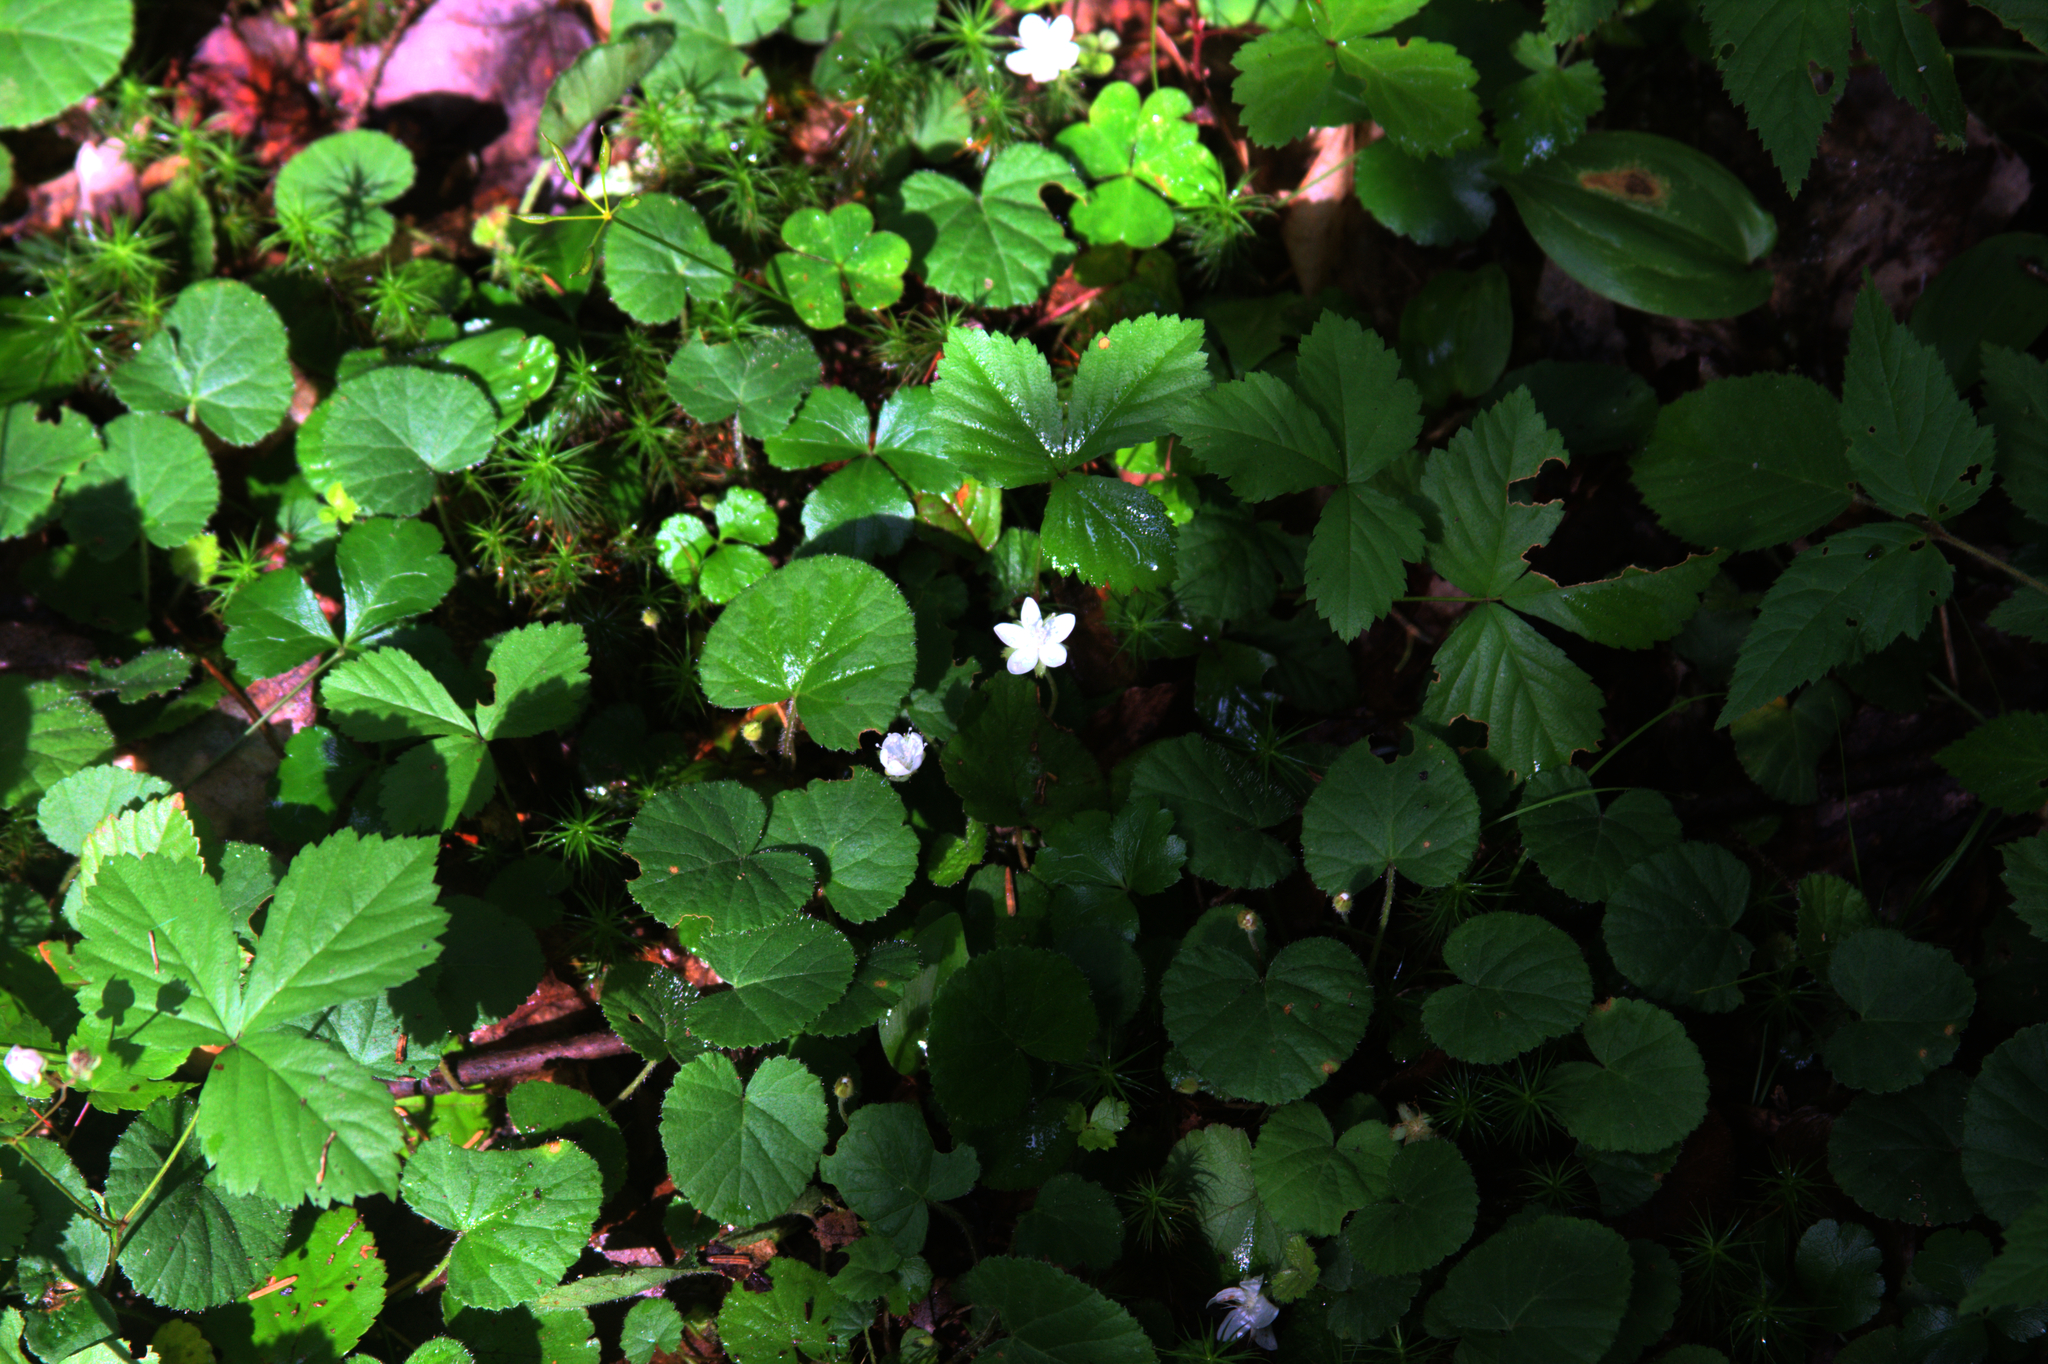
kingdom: Plantae
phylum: Tracheophyta
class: Magnoliopsida
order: Rosales
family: Rosaceae
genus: Dalibarda
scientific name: Dalibarda repens
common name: Dewdrop
